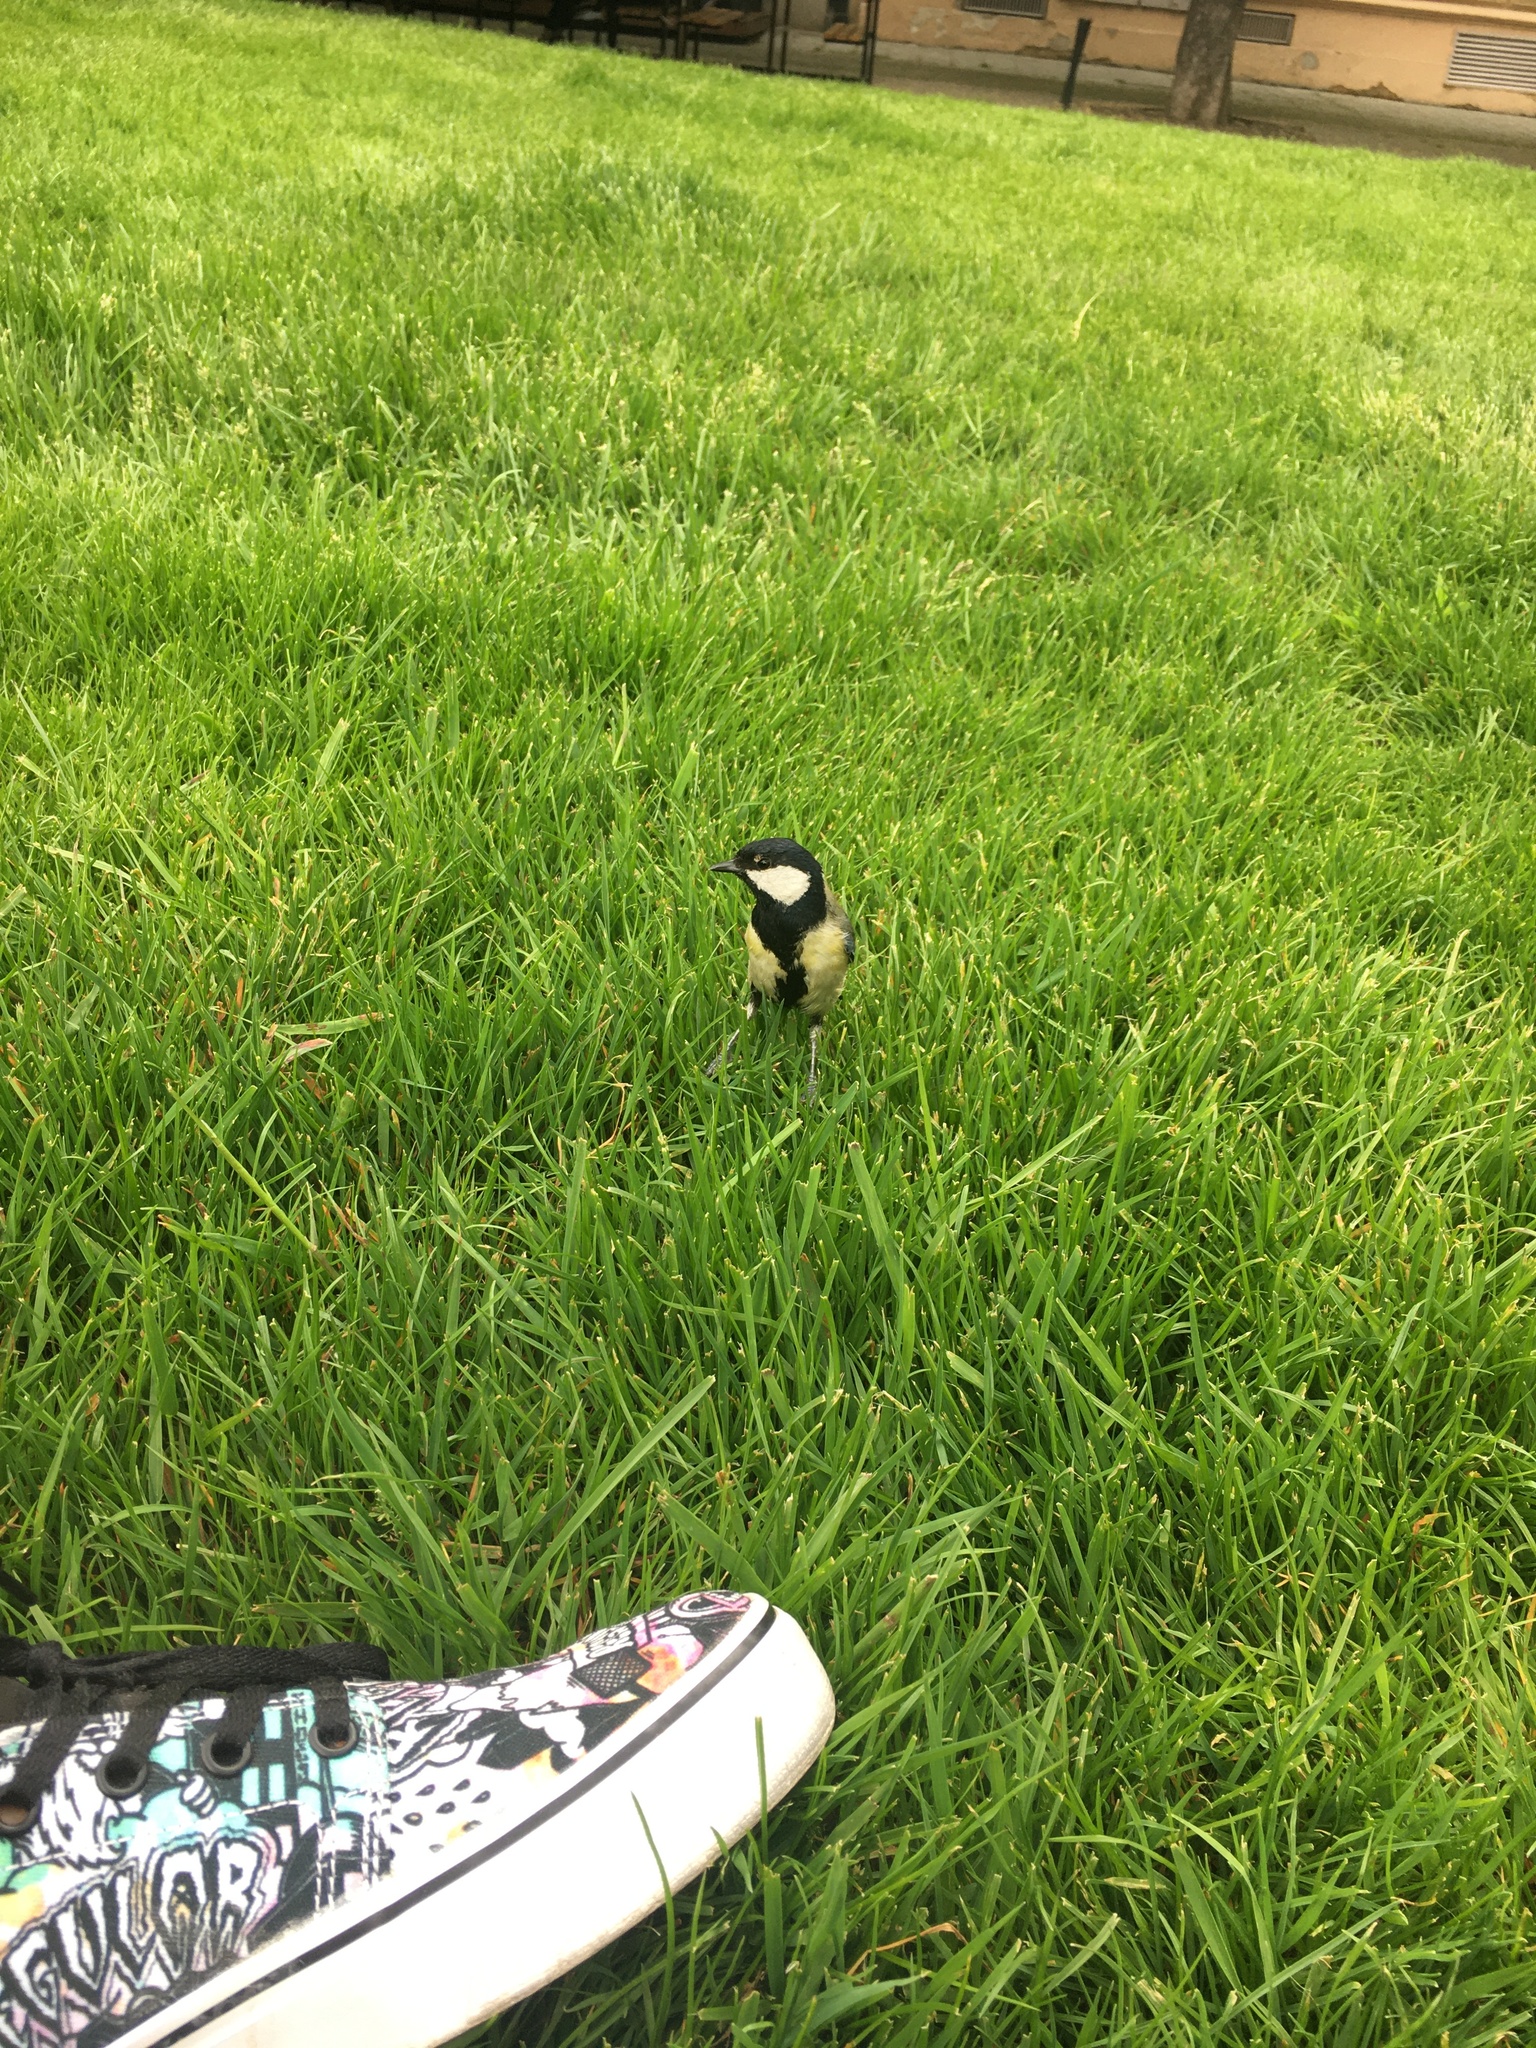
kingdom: Animalia
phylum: Chordata
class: Aves
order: Passeriformes
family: Paridae
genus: Parus
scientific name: Parus major
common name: Great tit
